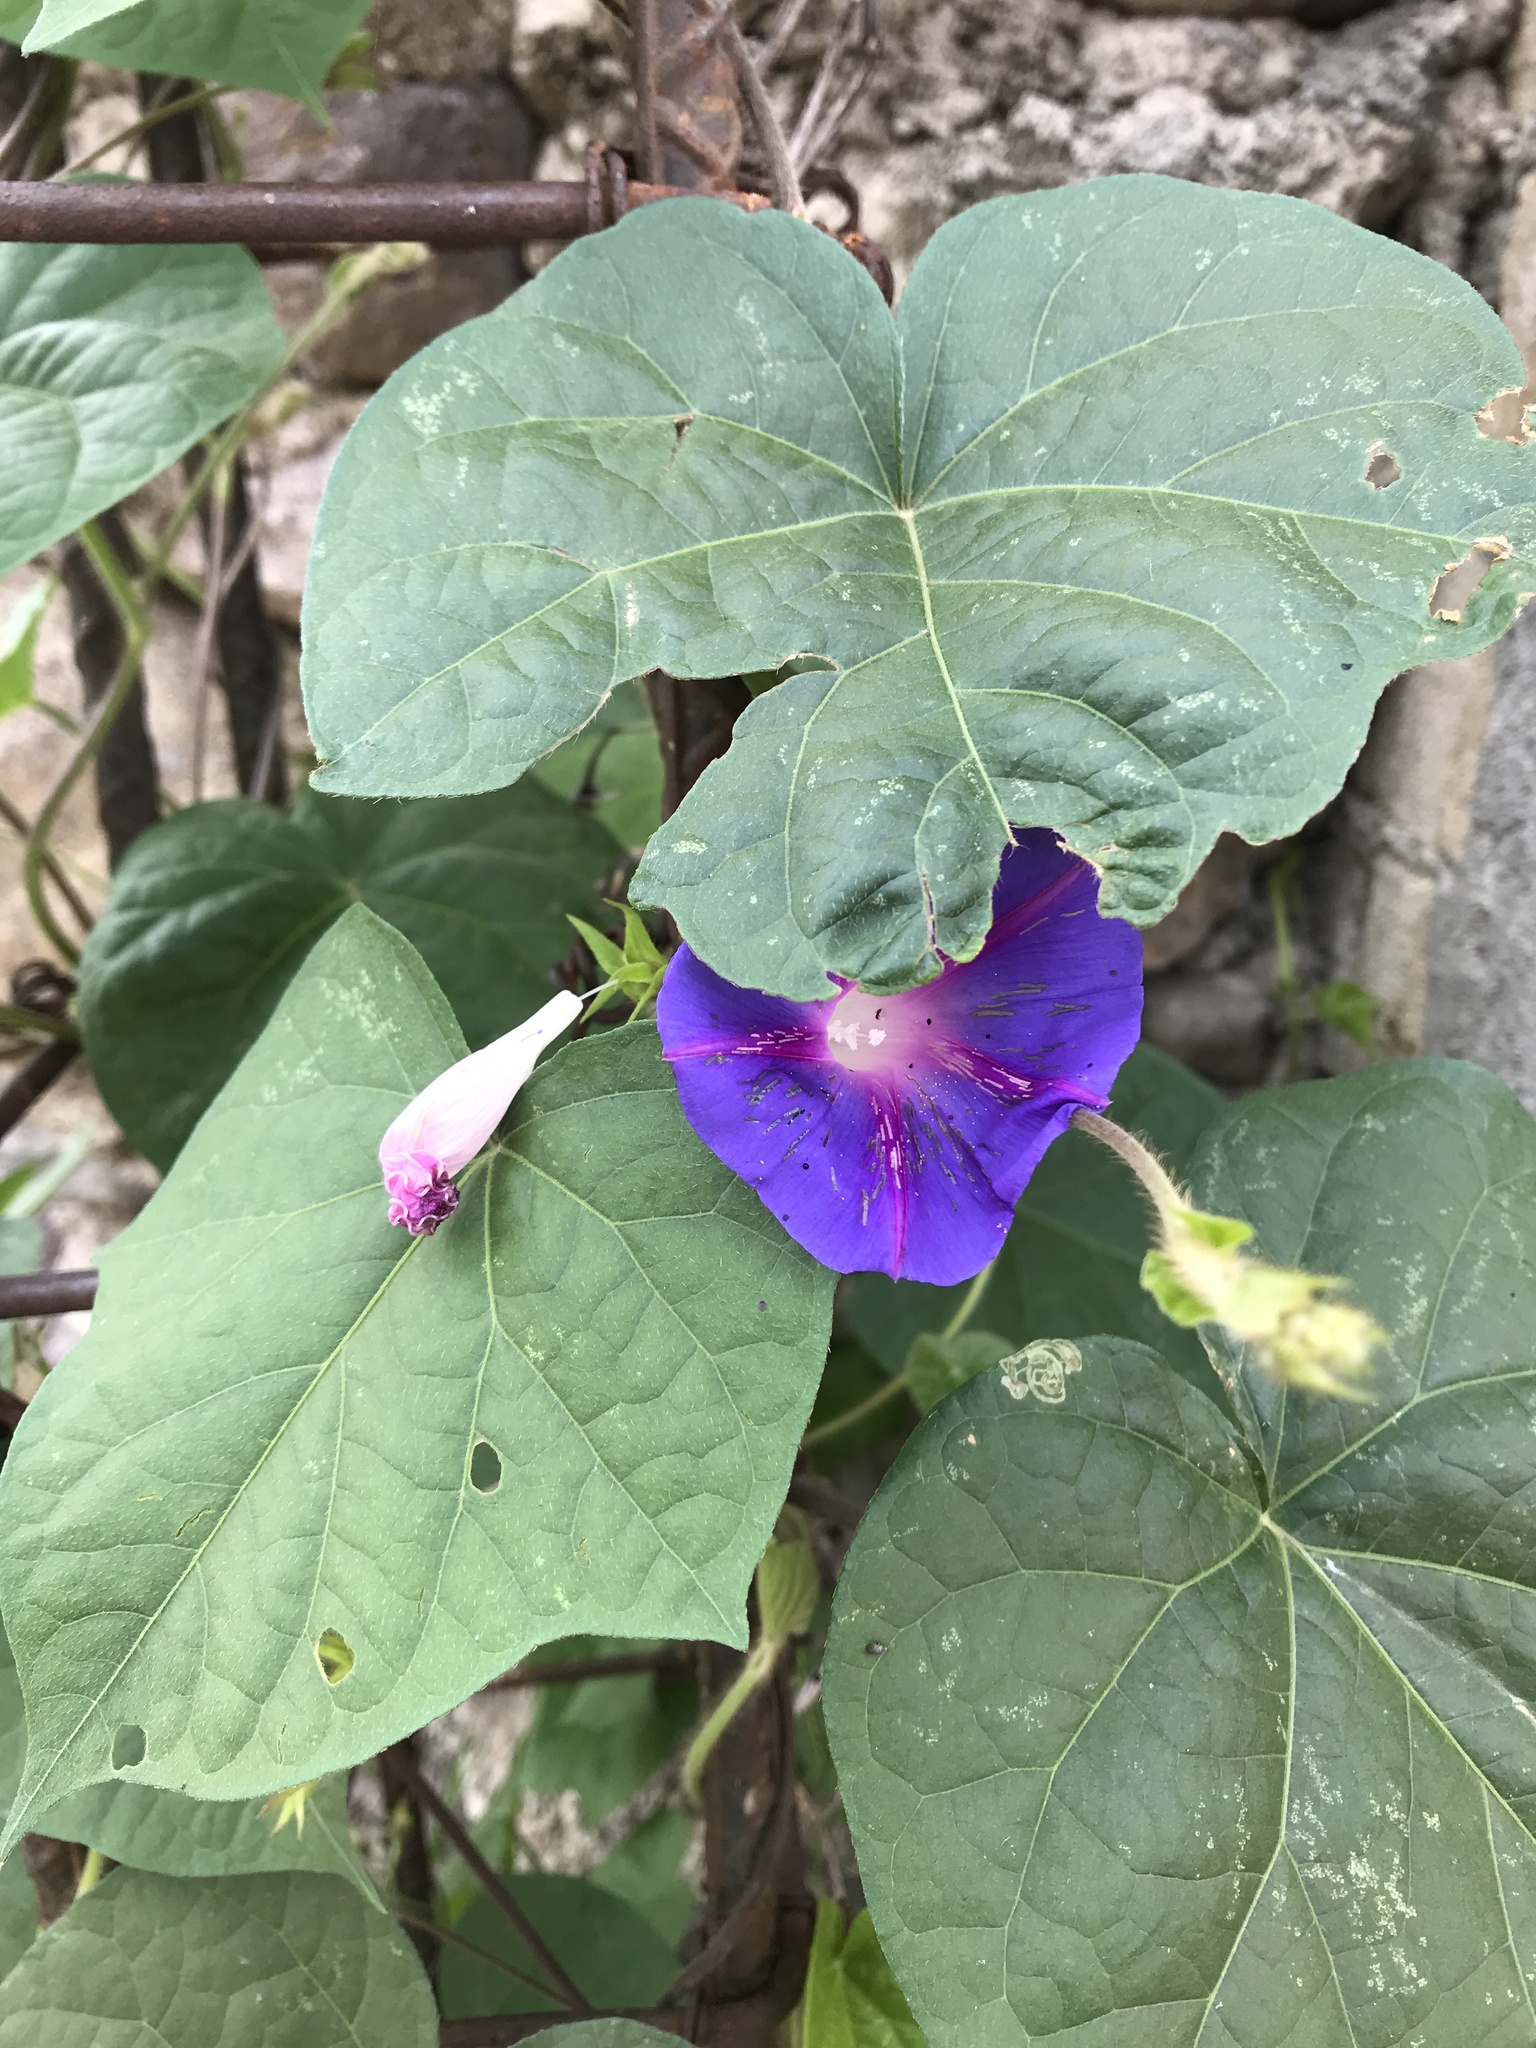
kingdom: Plantae
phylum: Tracheophyta
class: Magnoliopsida
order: Solanales
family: Convolvulaceae
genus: Ipomoea
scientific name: Ipomoea purpurea
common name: Common morning-glory
